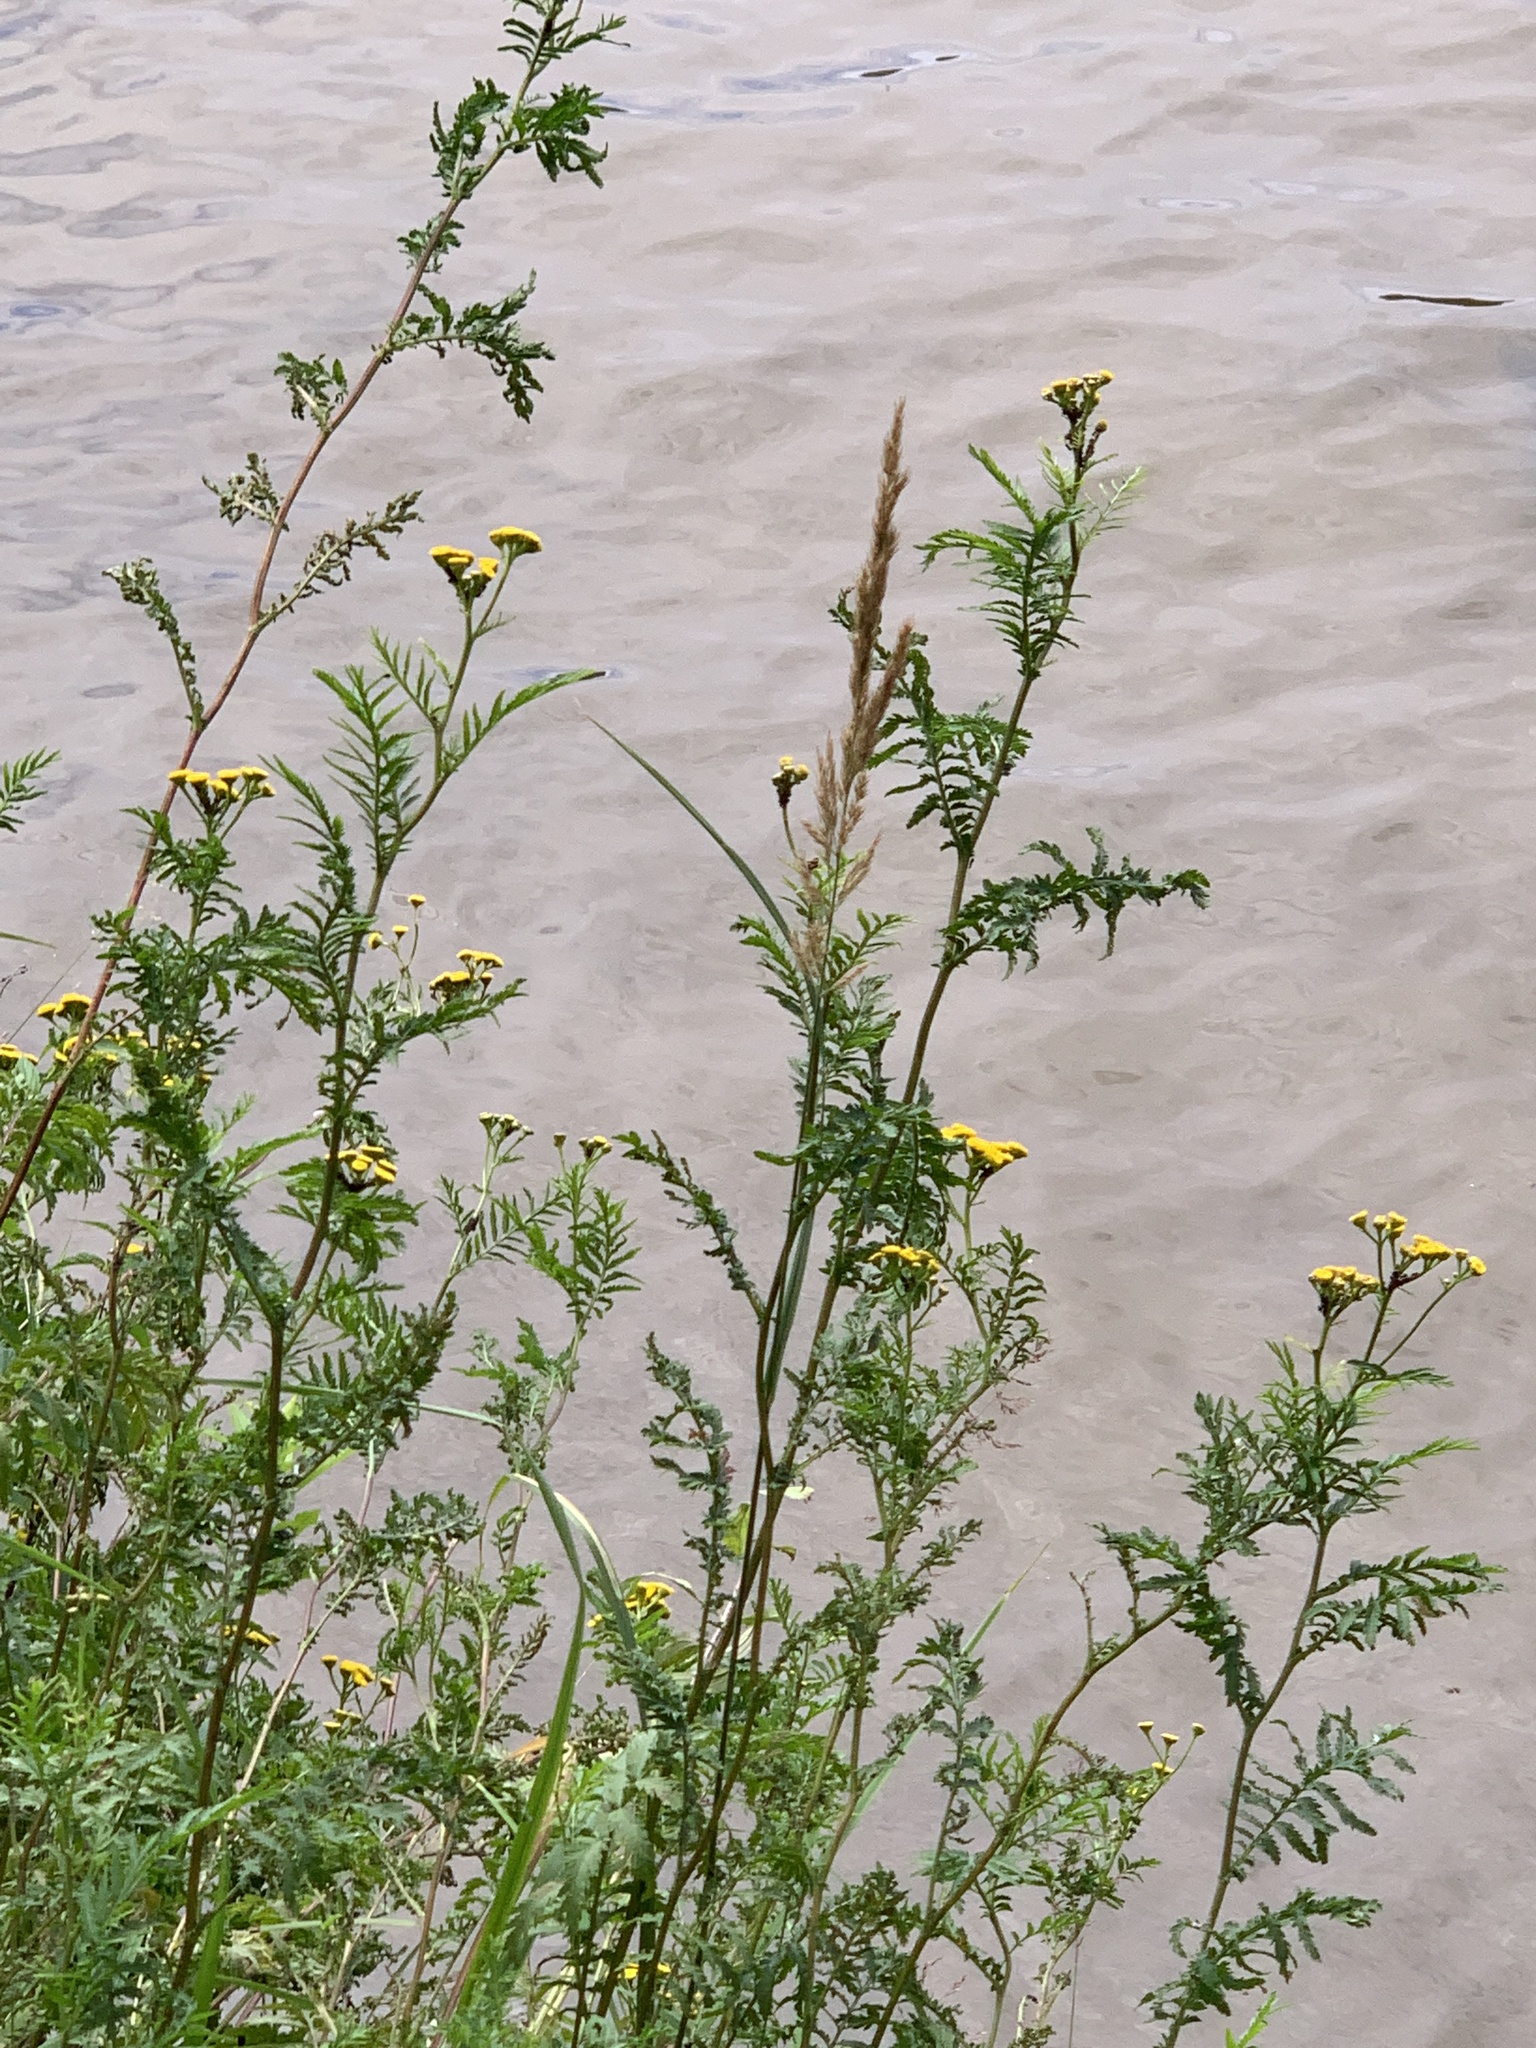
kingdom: Plantae
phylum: Tracheophyta
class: Magnoliopsida
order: Asterales
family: Asteraceae
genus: Tanacetum
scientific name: Tanacetum vulgare
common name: Common tansy
